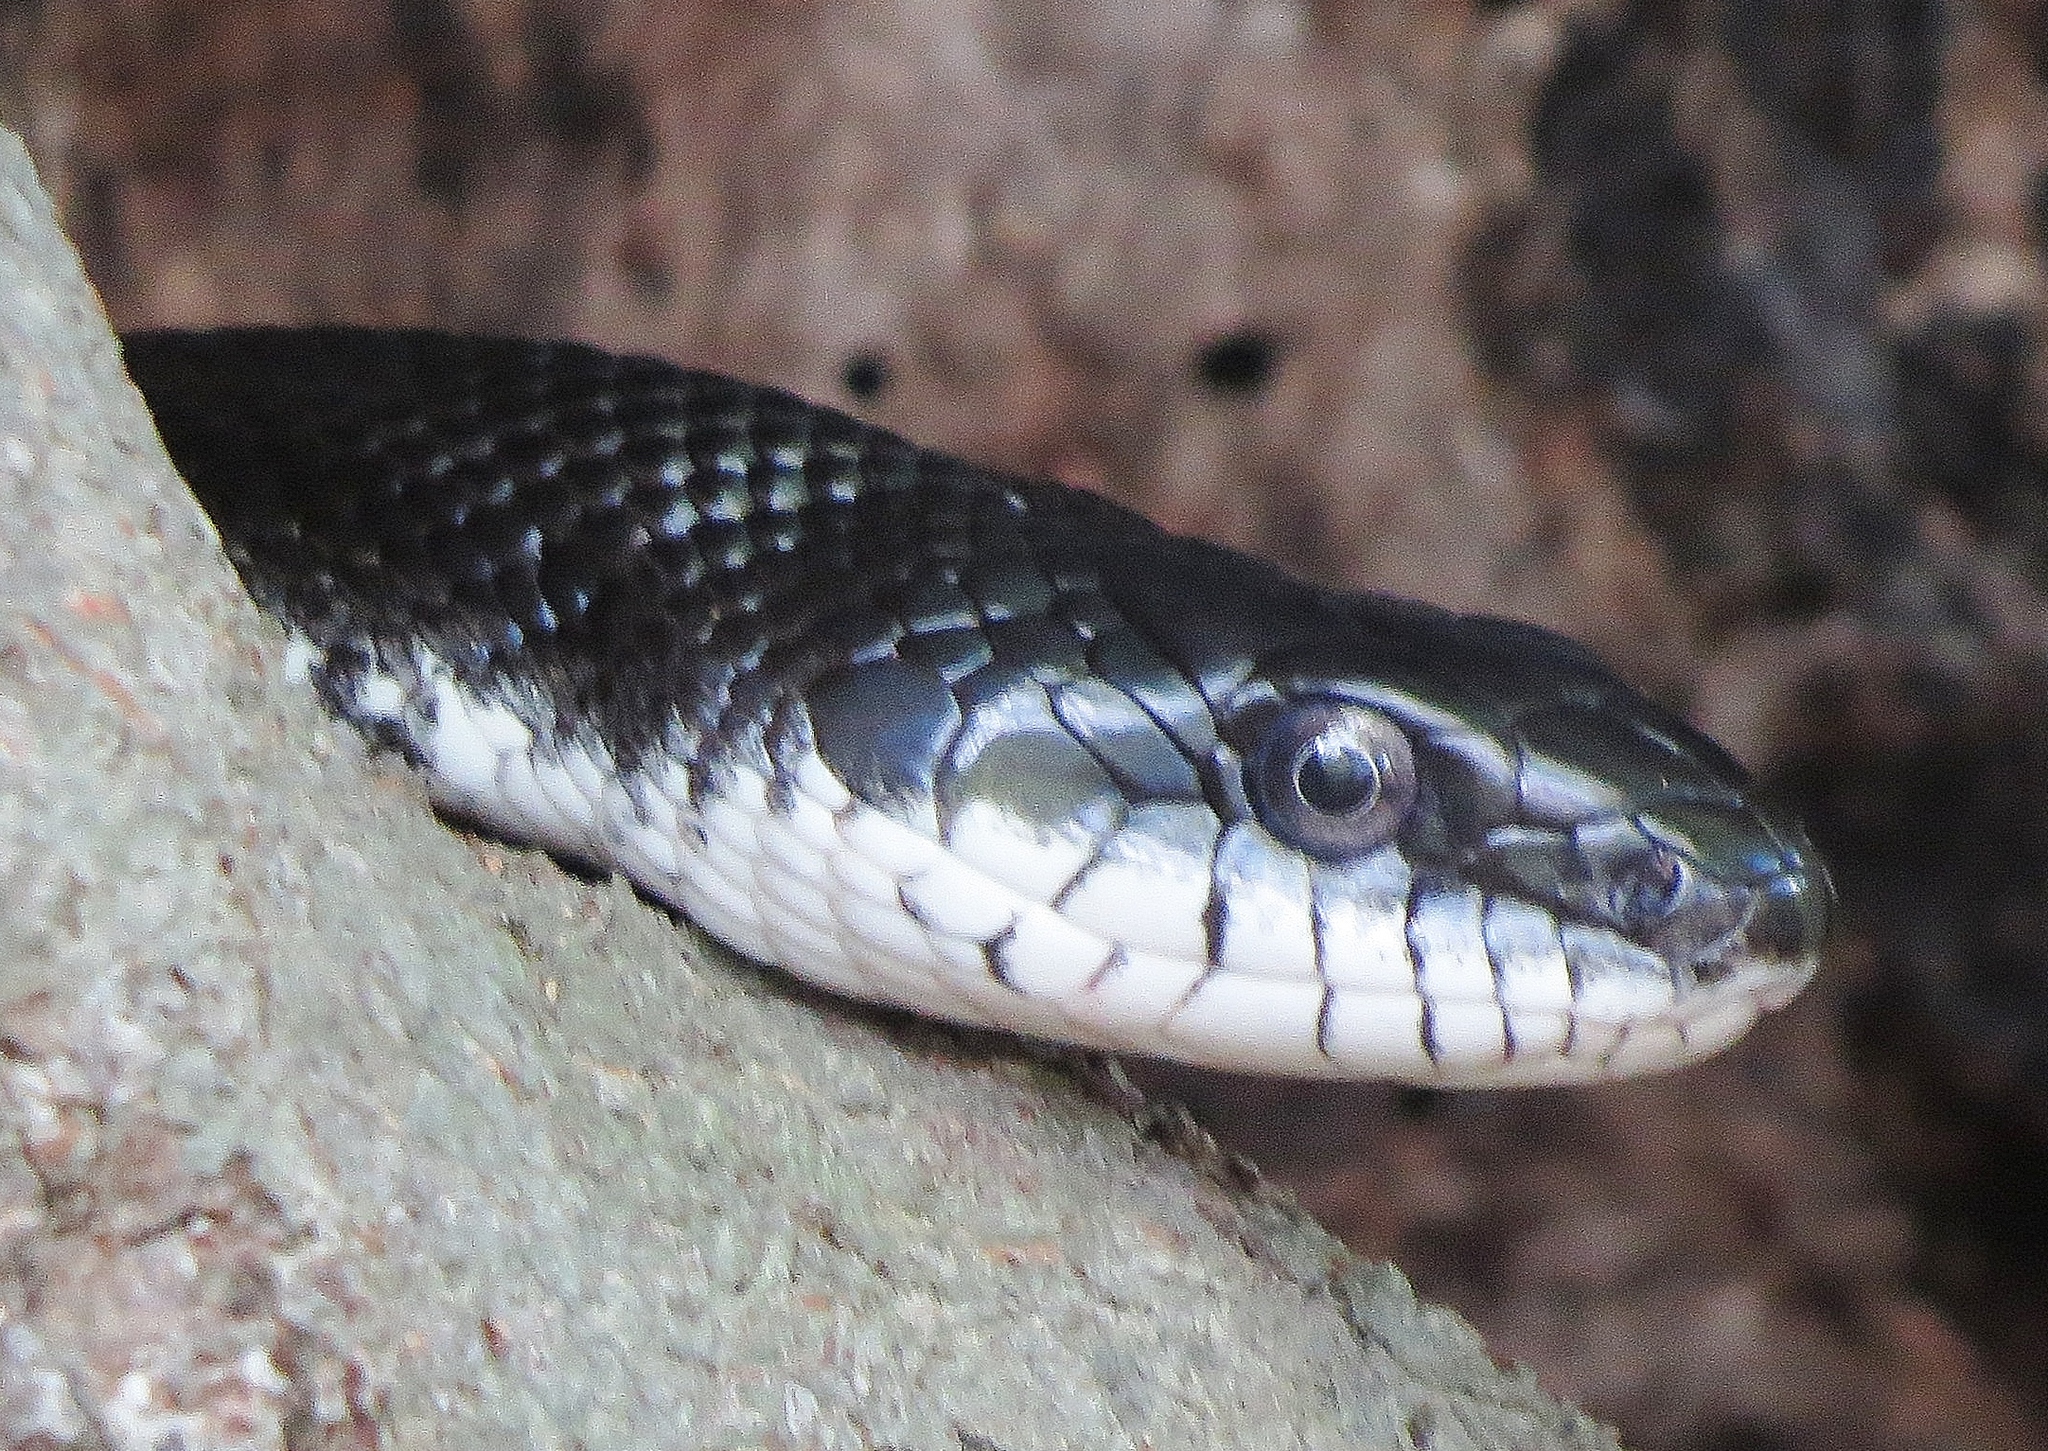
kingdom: Animalia
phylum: Chordata
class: Squamata
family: Colubridae
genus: Pantherophis
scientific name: Pantherophis alleghaniensis
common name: Eastern rat snake
